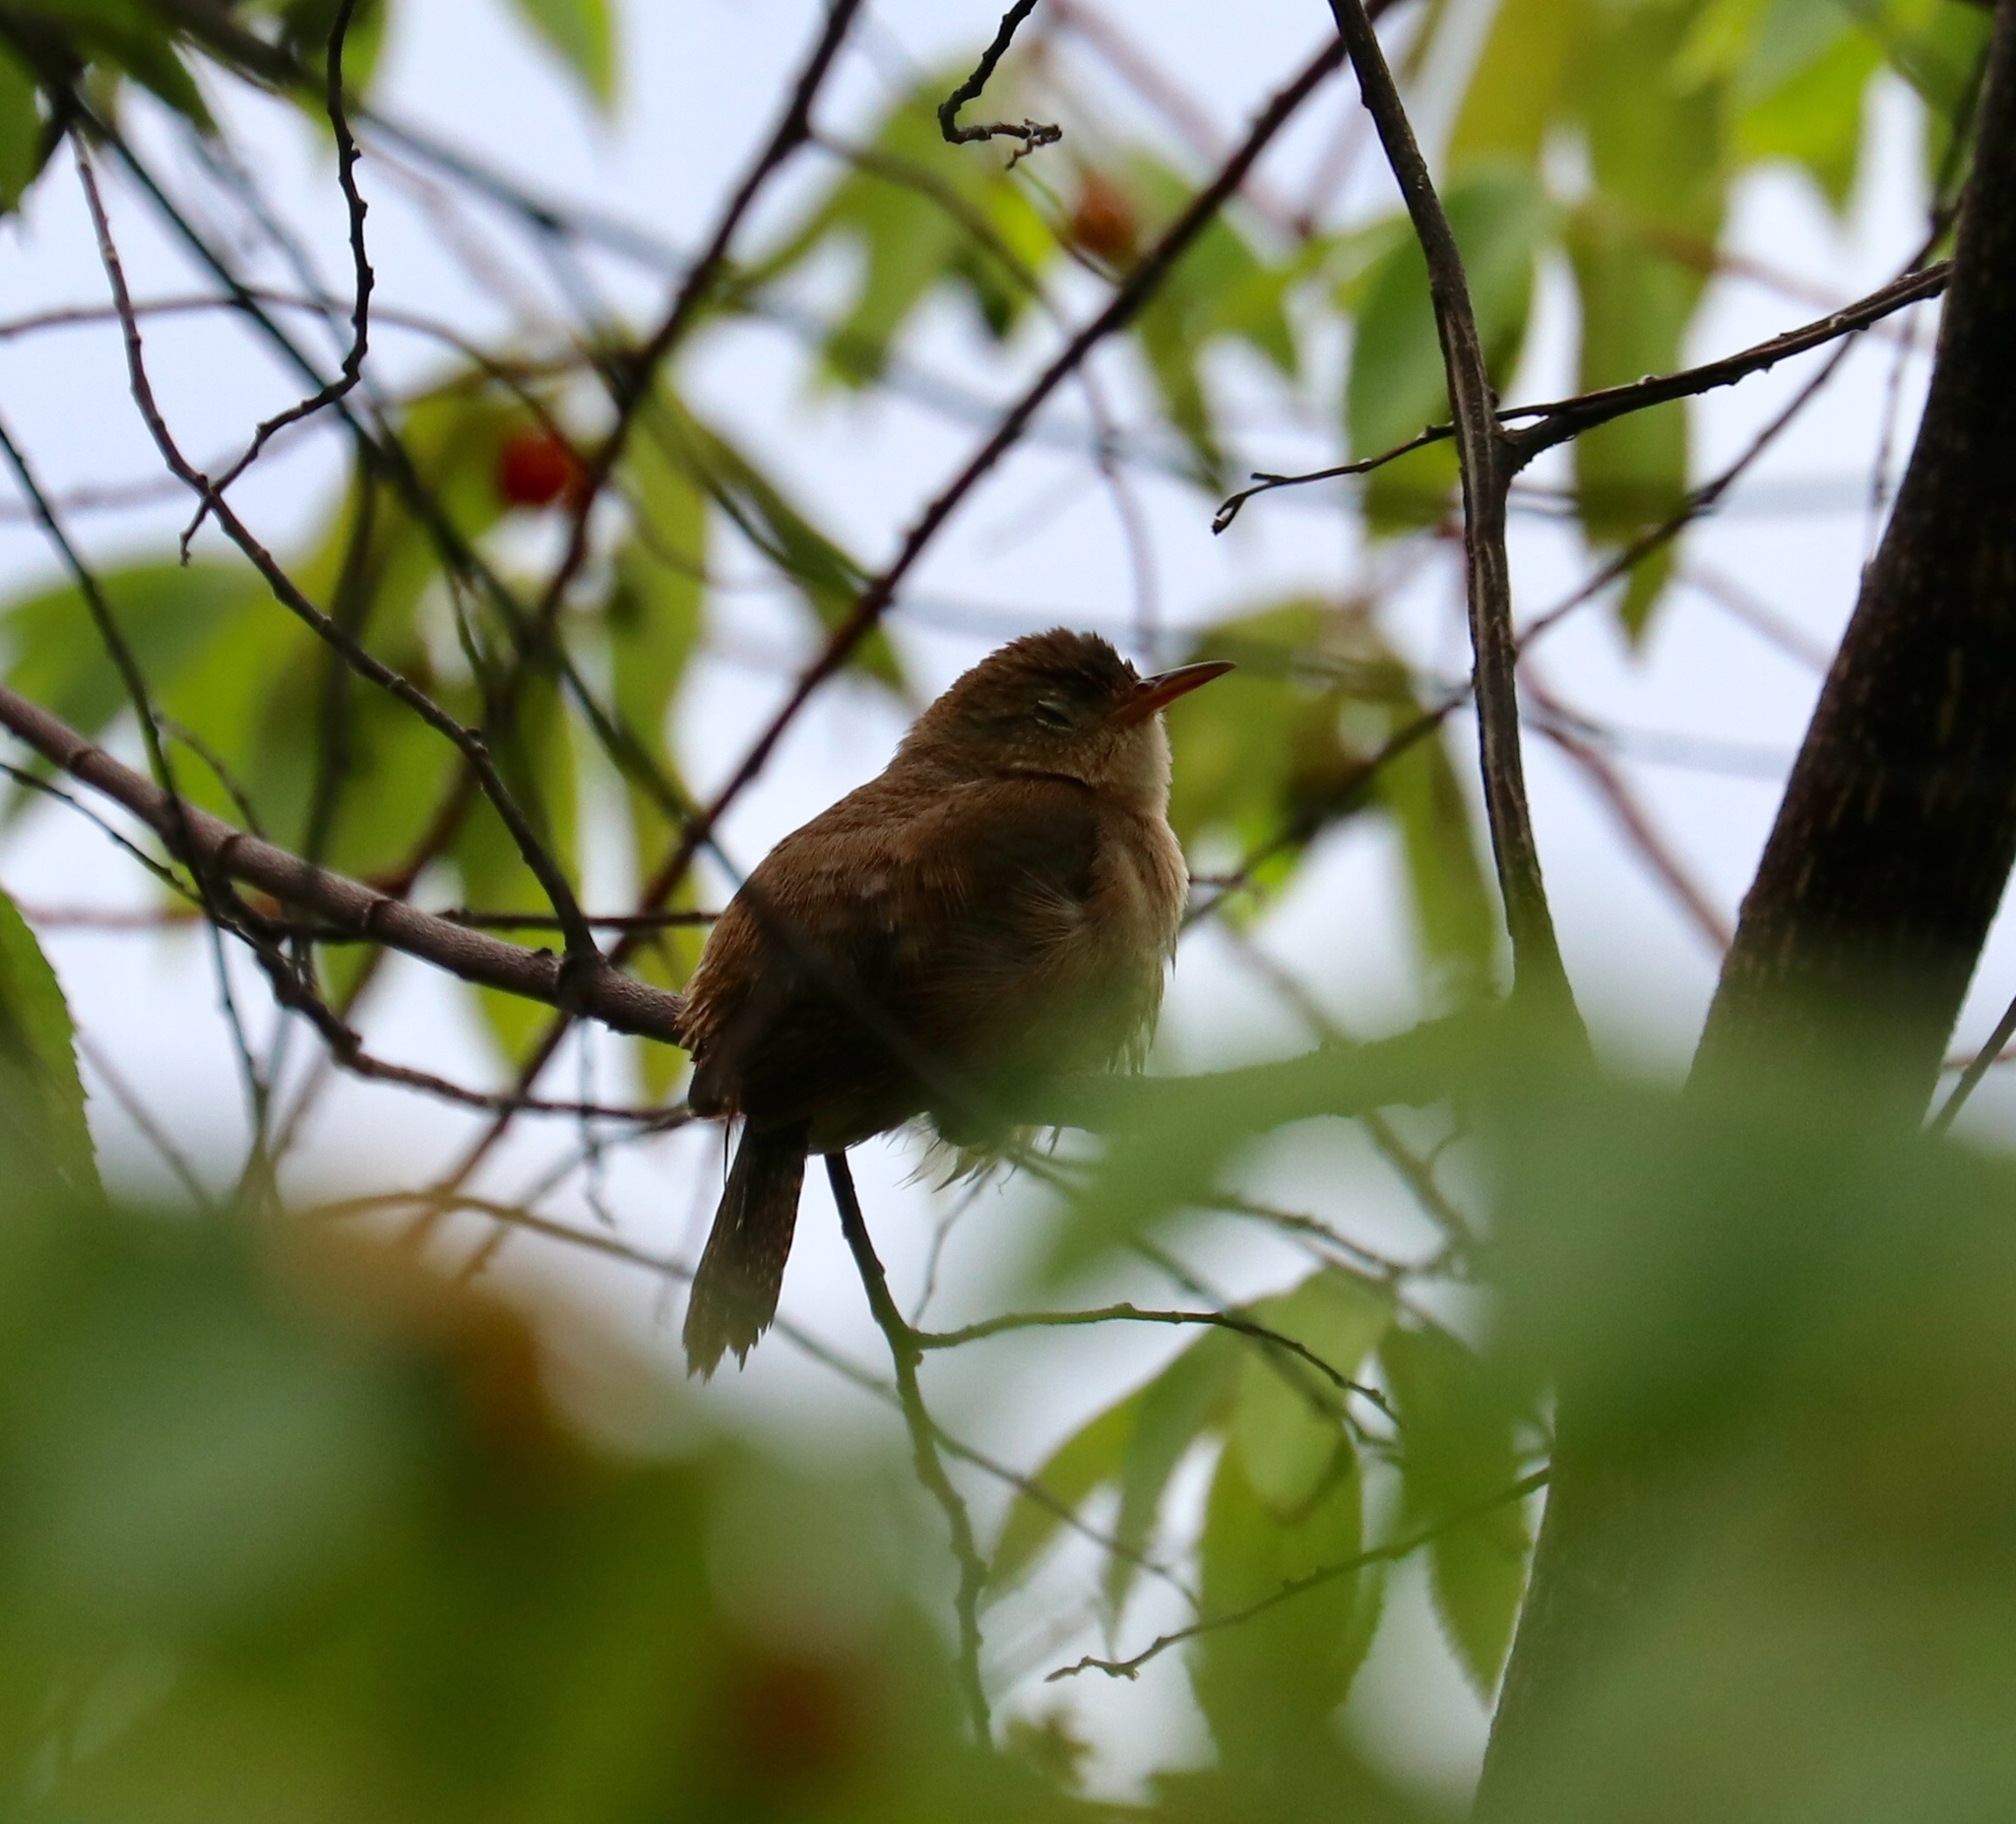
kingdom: Animalia
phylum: Chordata
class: Aves
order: Passeriformes
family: Troglodytidae
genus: Troglodytes
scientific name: Troglodytes aedon
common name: House wren
